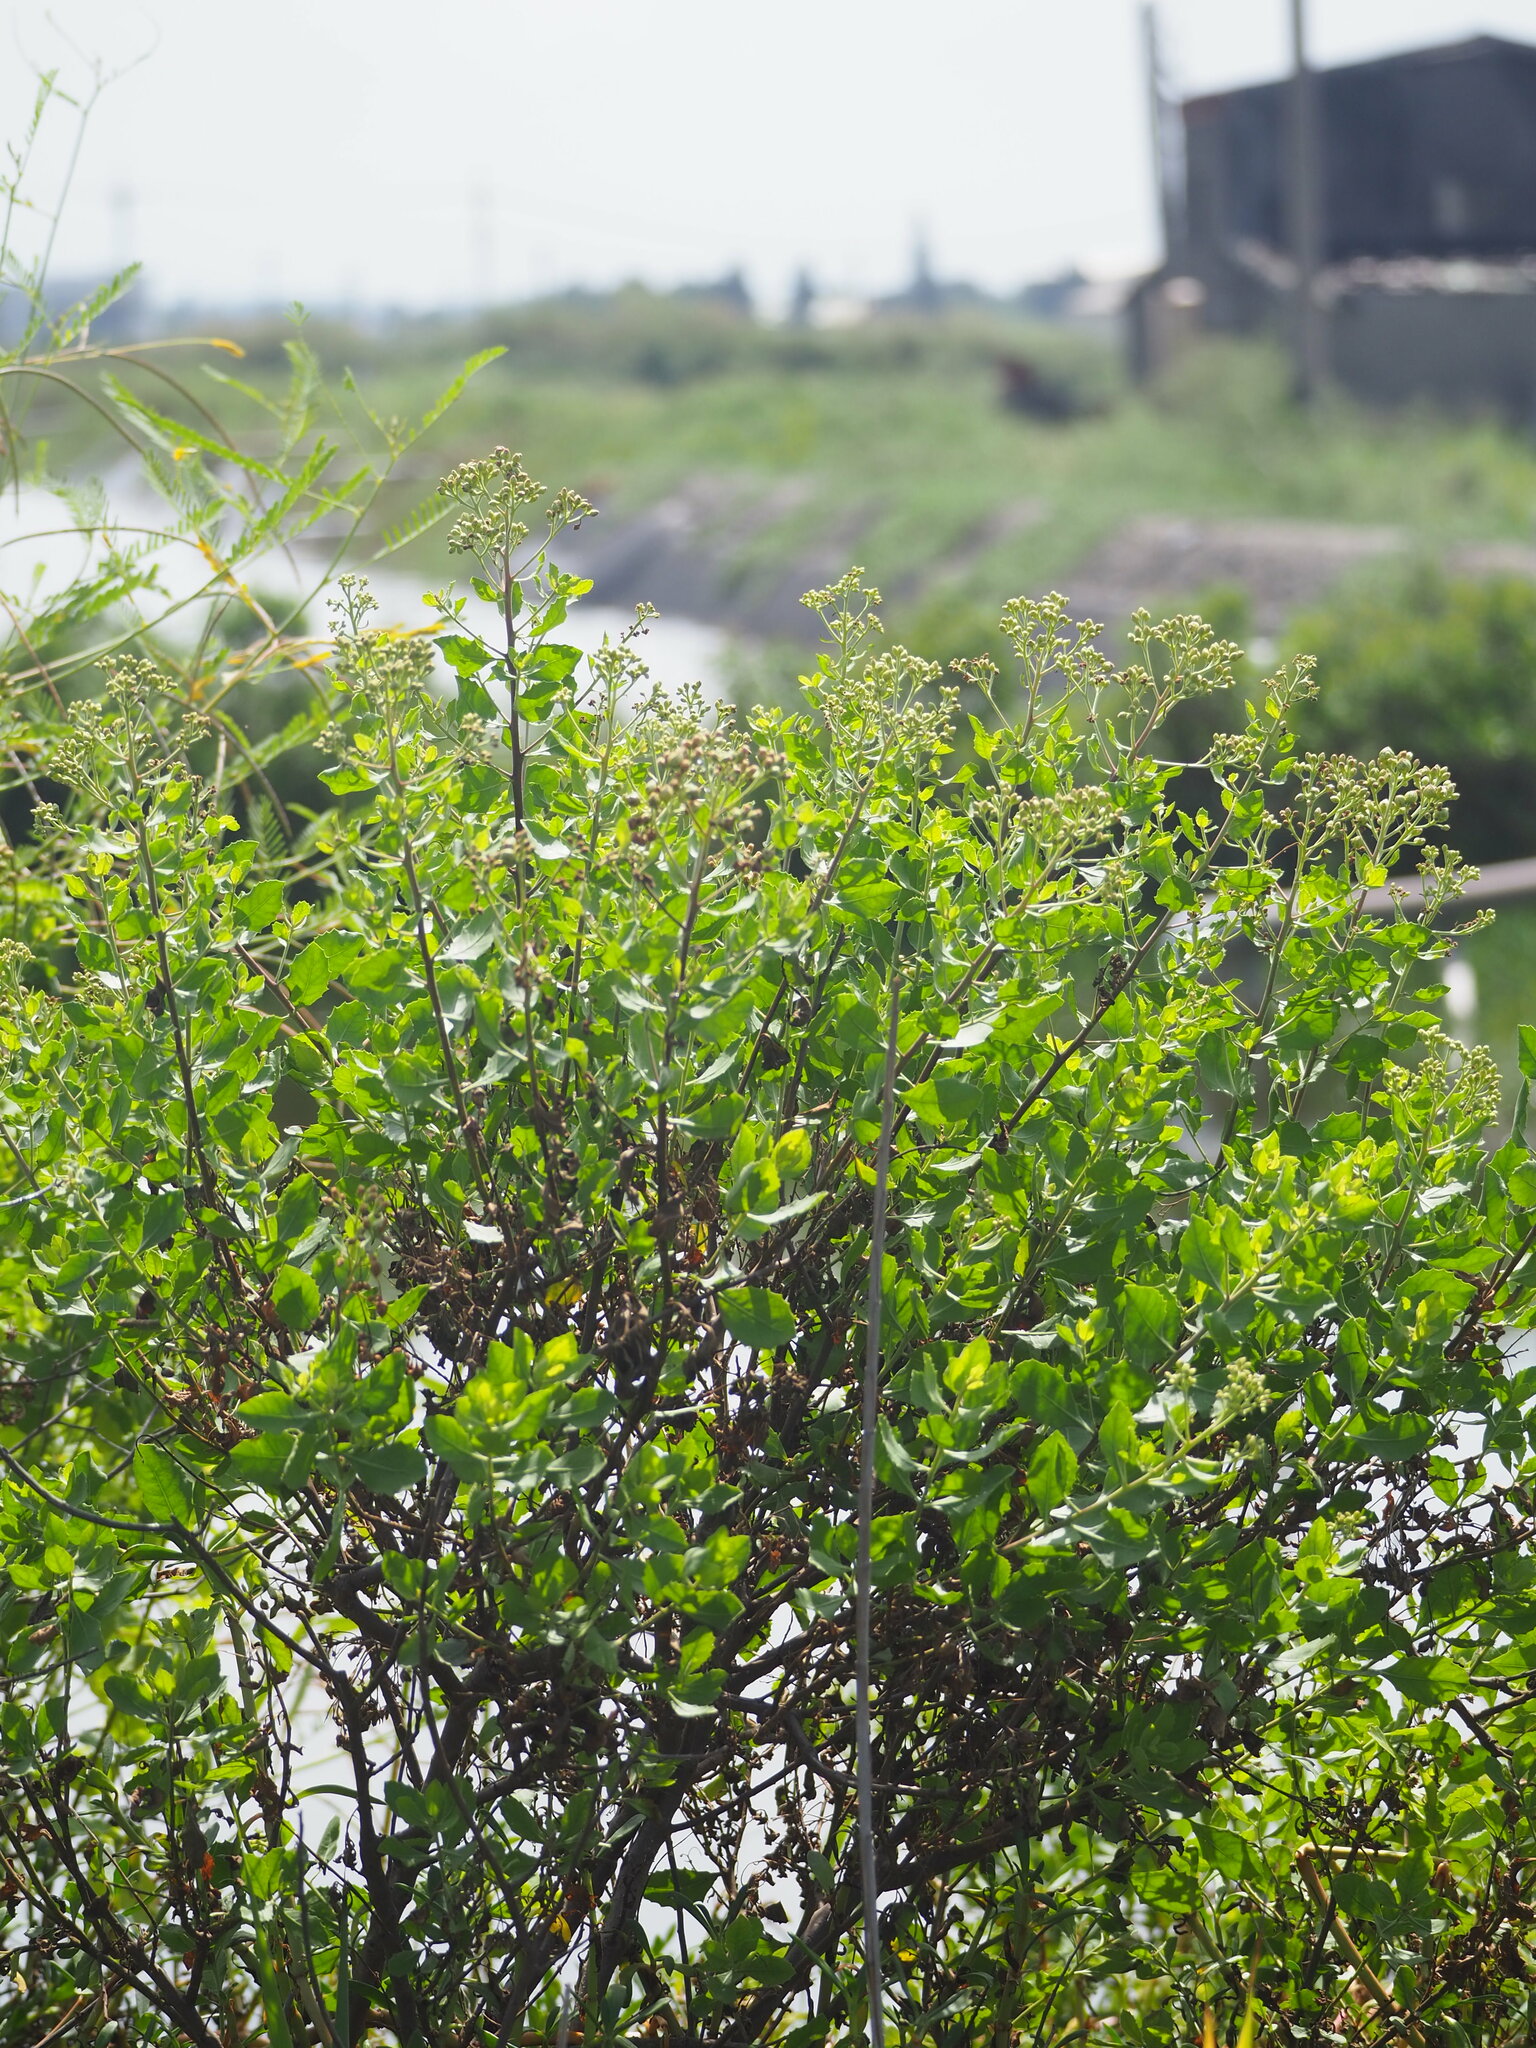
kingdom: Plantae
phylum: Tracheophyta
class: Magnoliopsida
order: Asterales
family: Asteraceae
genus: Pluchea
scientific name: Pluchea indica
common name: Indian fleabane
